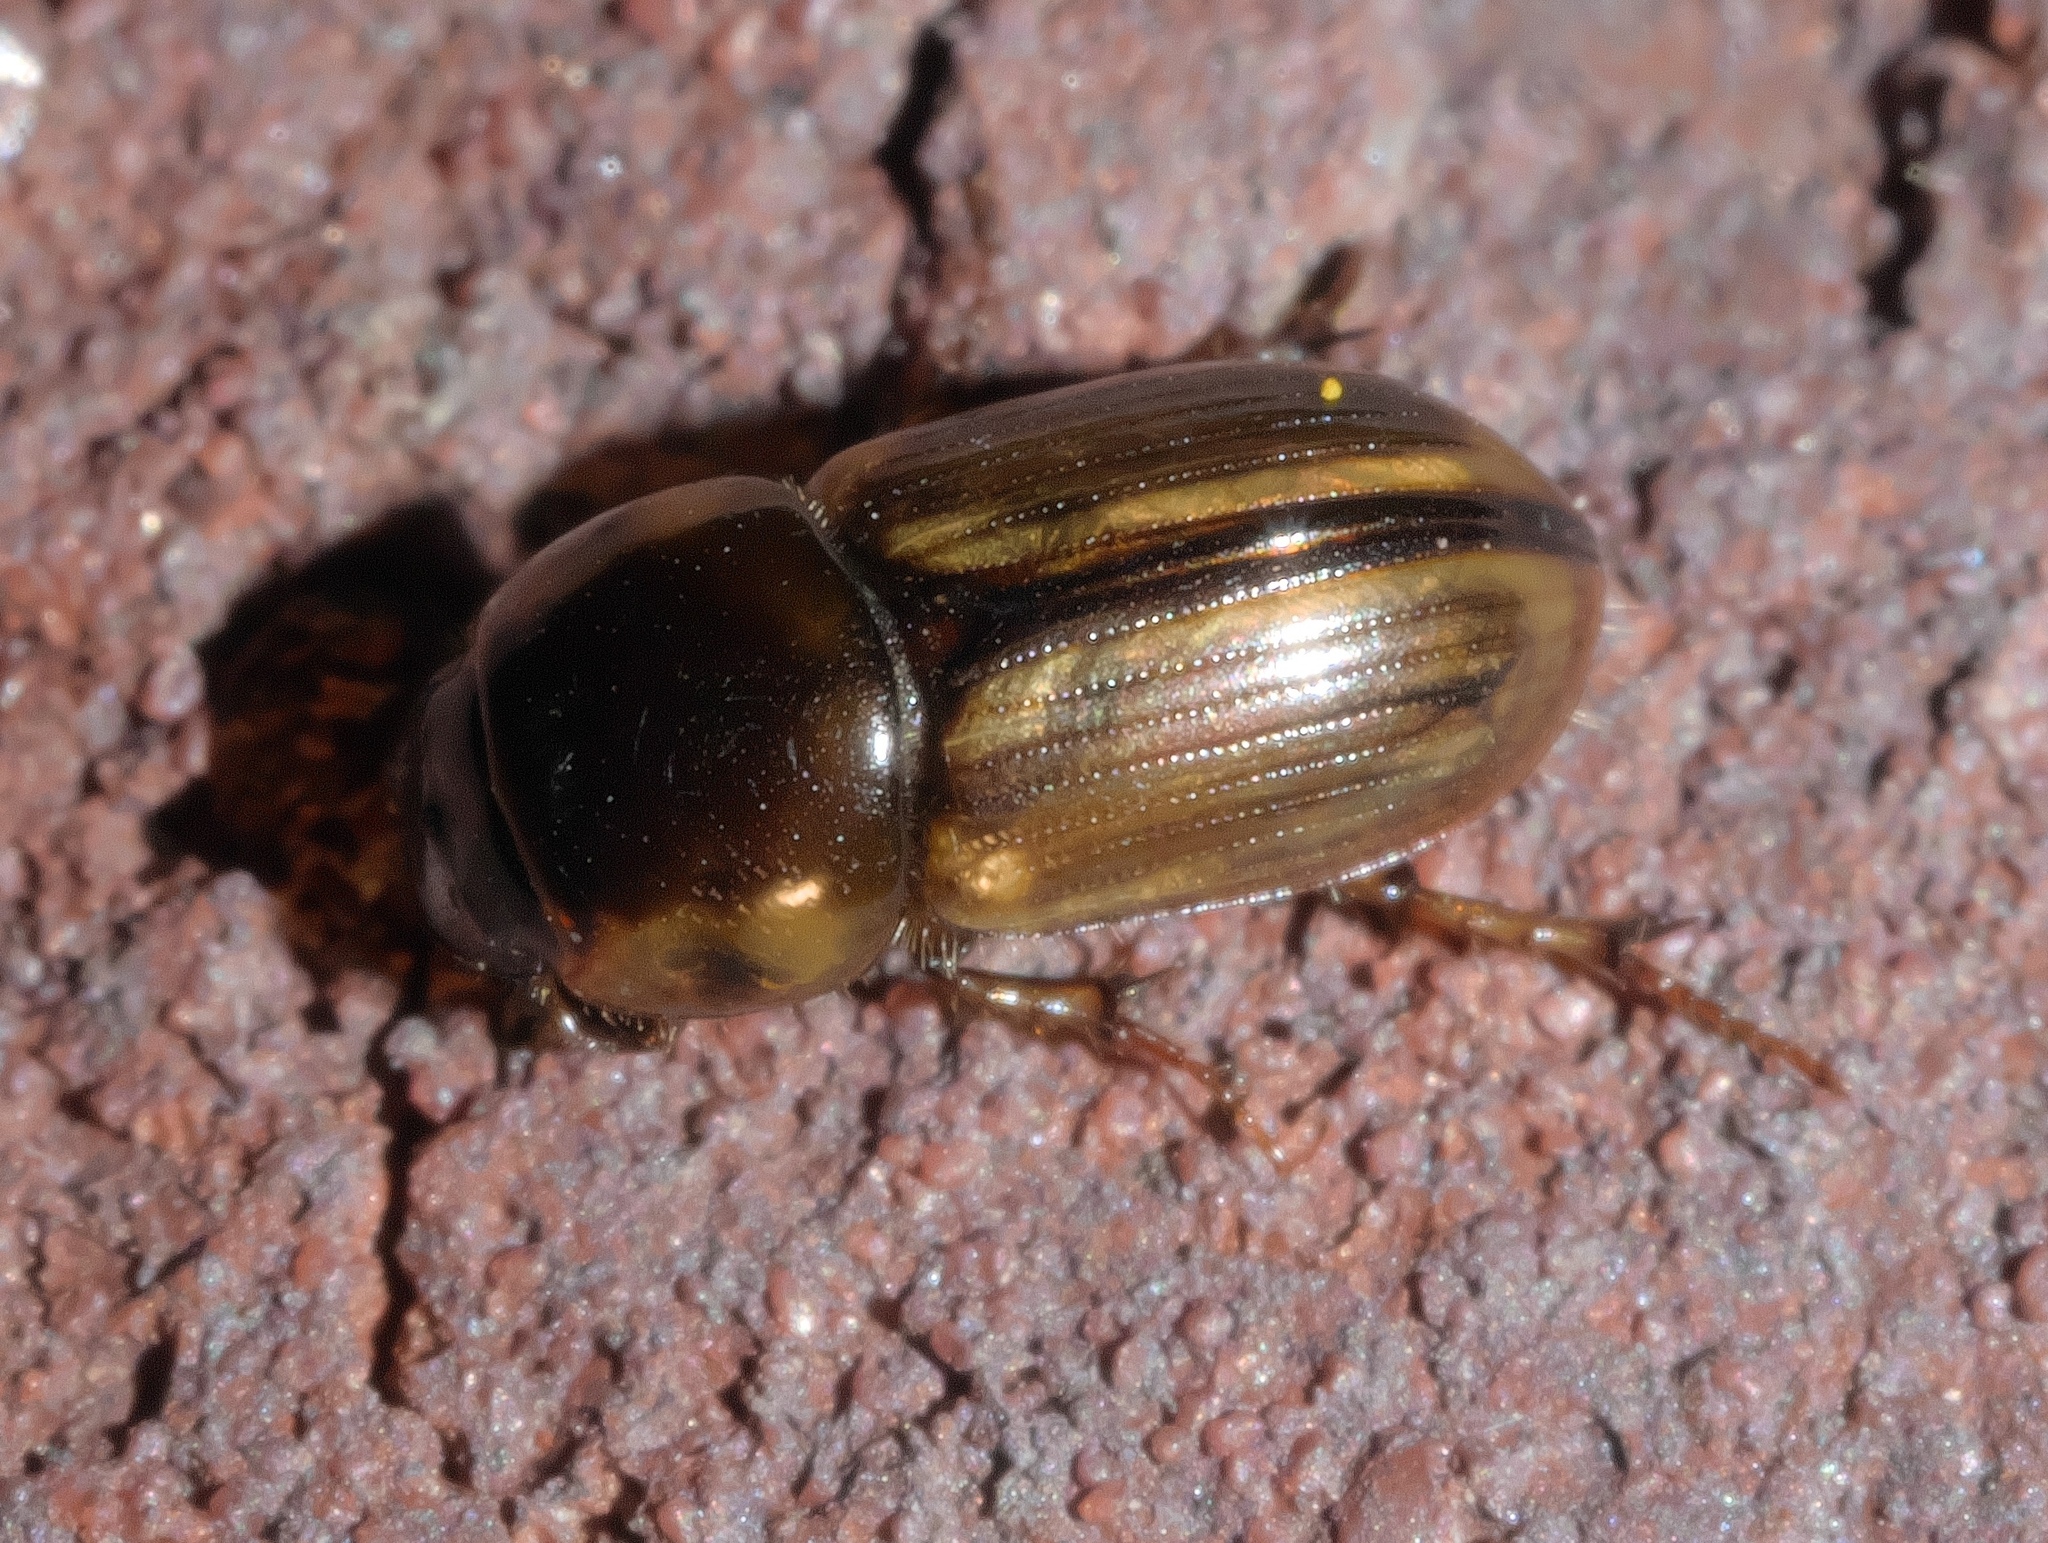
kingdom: Animalia
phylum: Arthropoda
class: Insecta
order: Coleoptera
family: Scarabaeidae
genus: Labarrus
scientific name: Labarrus lividus
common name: Scarab beetle
